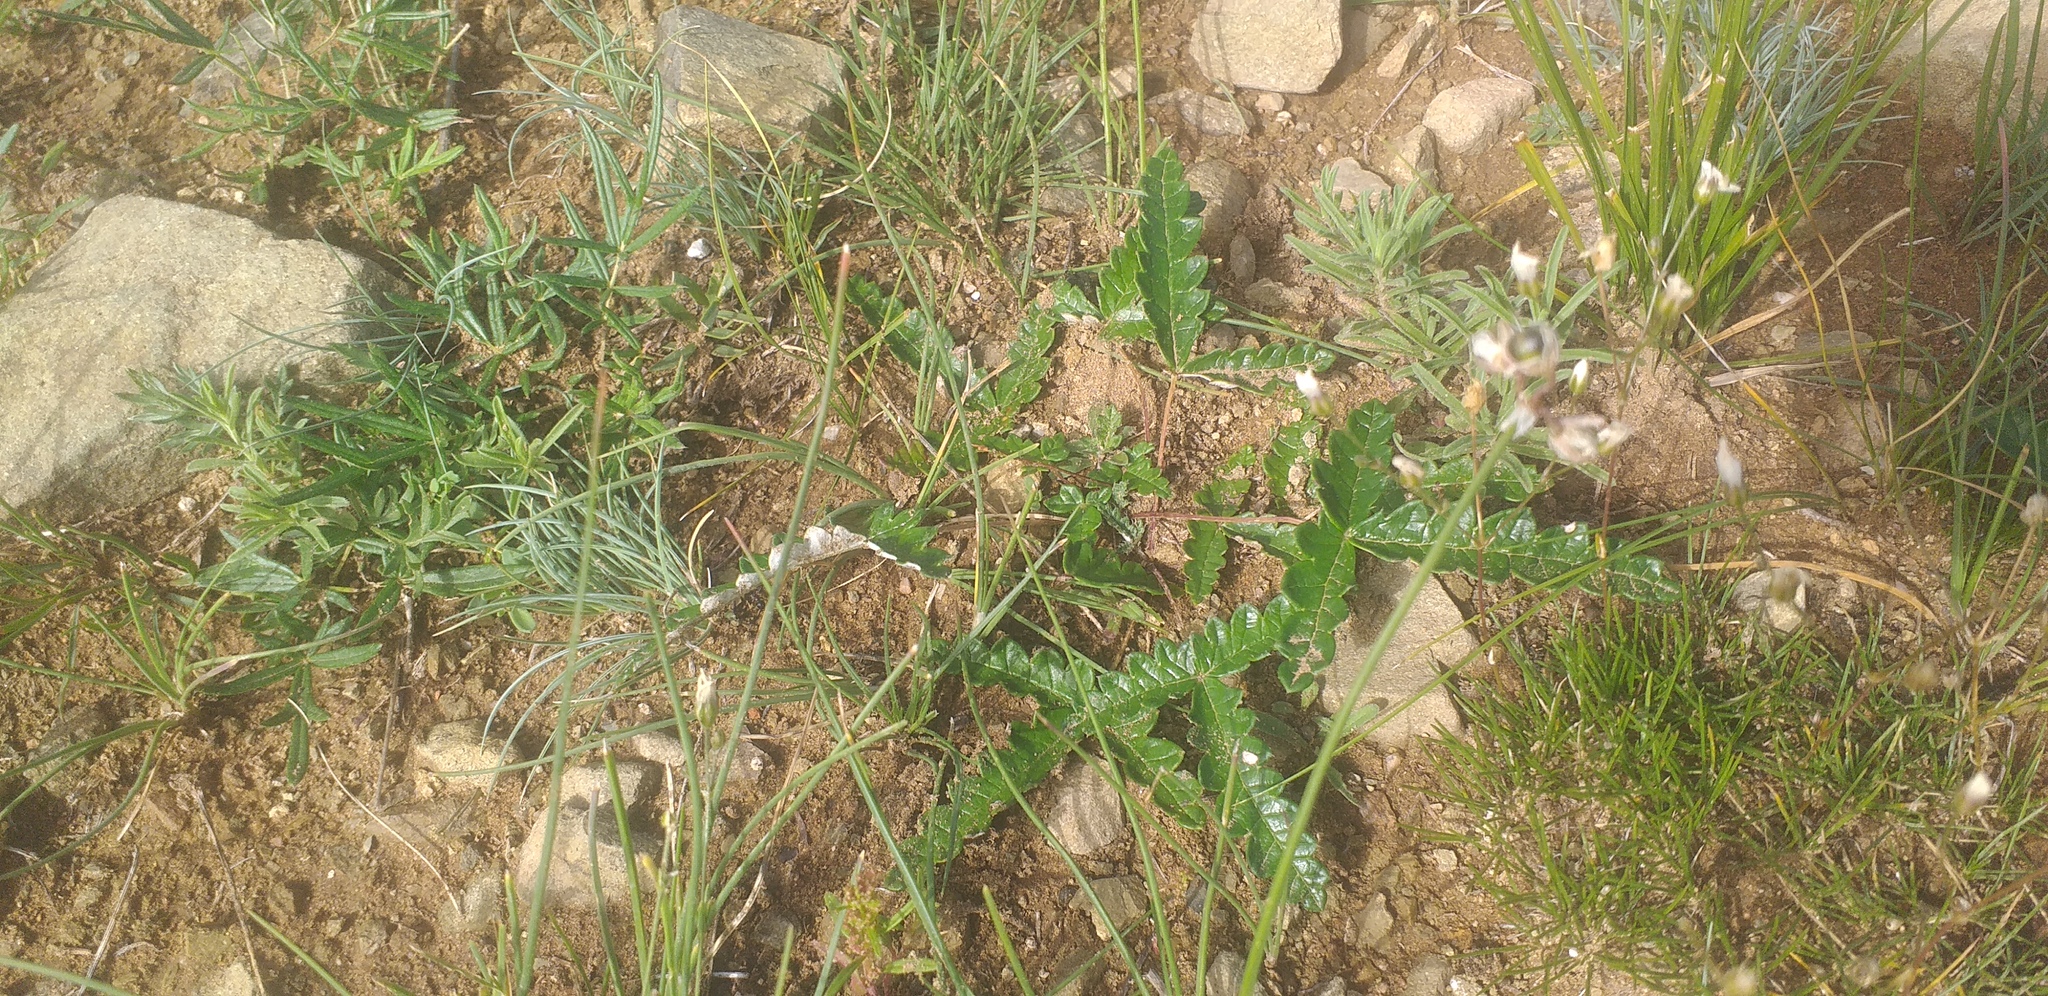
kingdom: Plantae
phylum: Tracheophyta
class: Magnoliopsida
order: Rosales
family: Rosaceae
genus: Potentilla
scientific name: Potentilla
